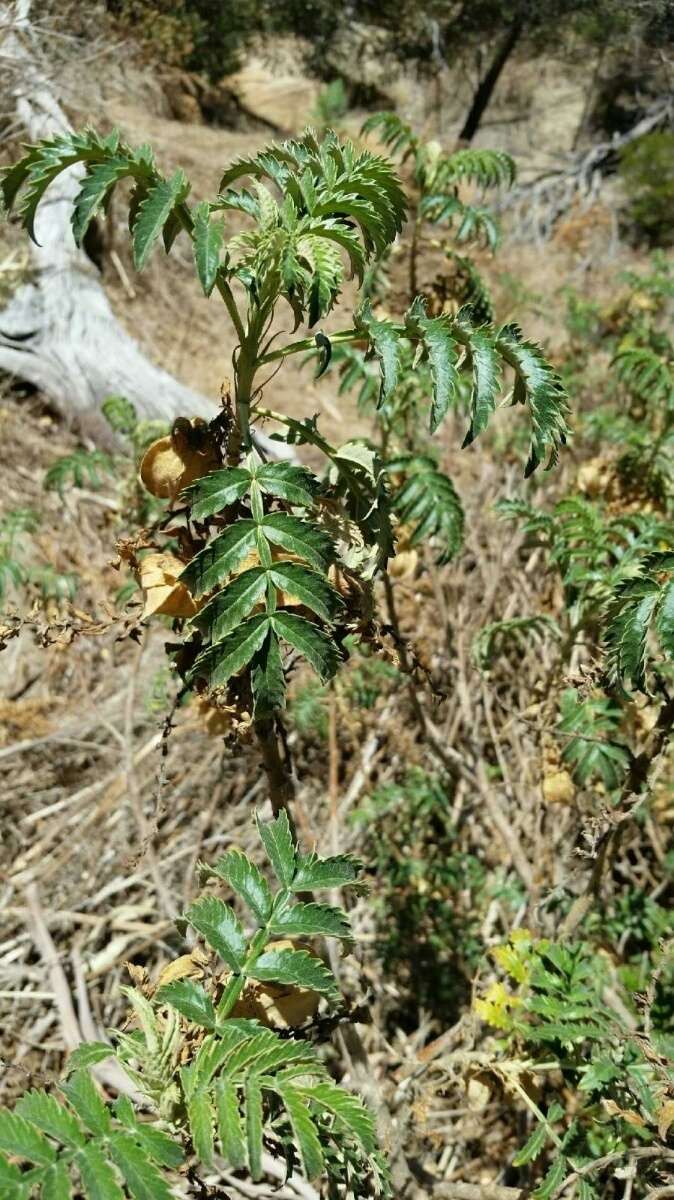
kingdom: Plantae
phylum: Tracheophyta
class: Magnoliopsida
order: Geraniales
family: Melianthaceae
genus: Melianthus
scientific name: Melianthus comosus
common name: Touch-me-not
